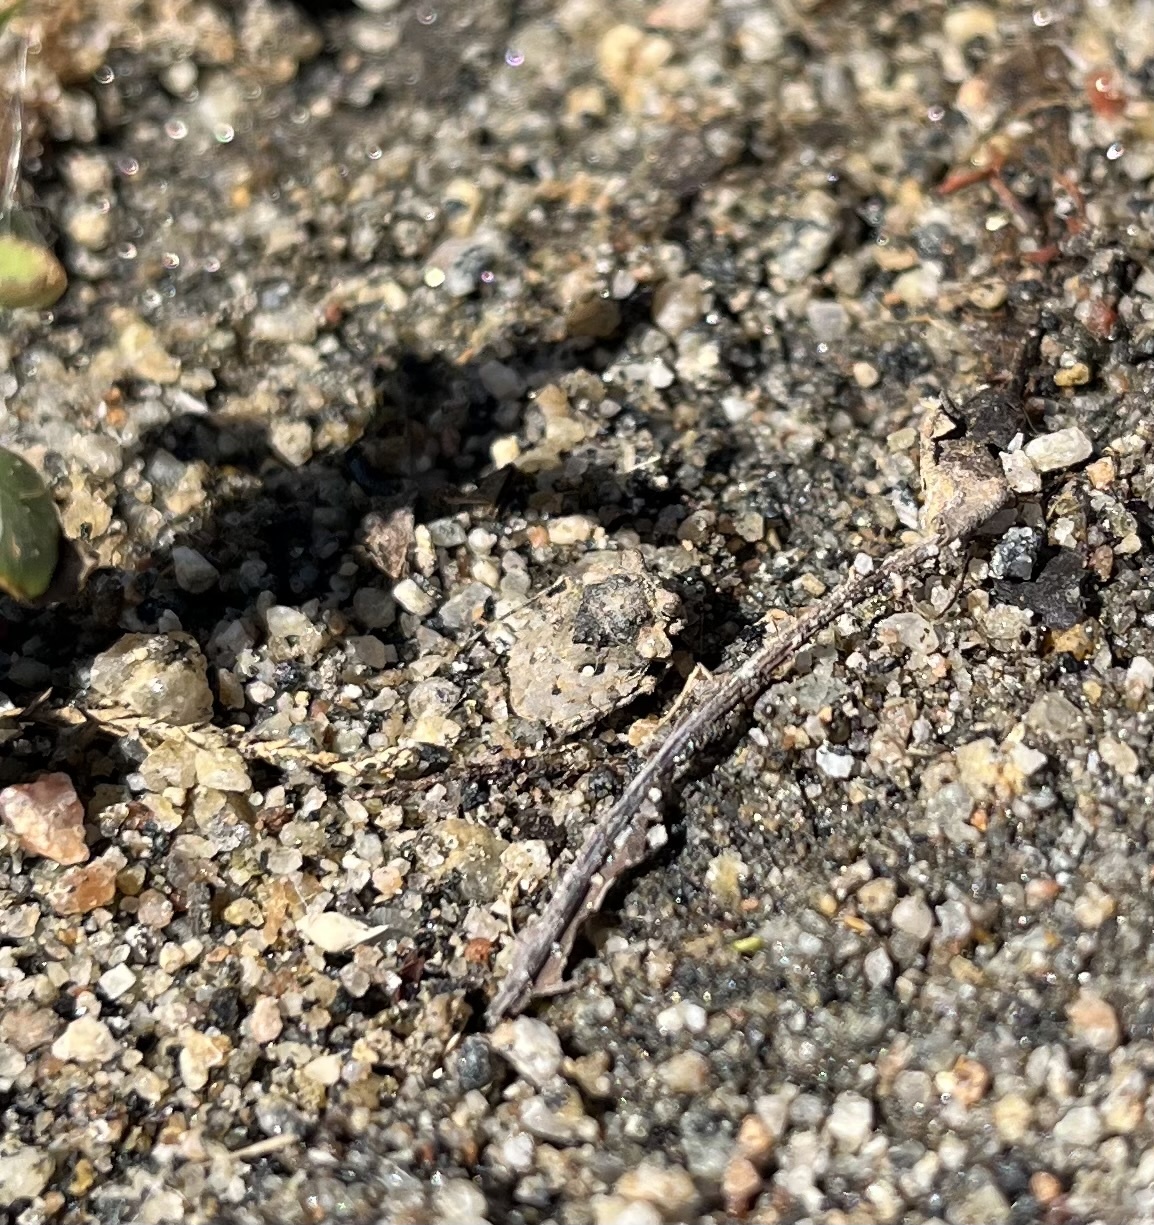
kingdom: Animalia
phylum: Arthropoda
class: Insecta
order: Hemiptera
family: Gelastocoridae
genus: Gelastocoris
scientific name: Gelastocoris oculatus
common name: Toad bug
